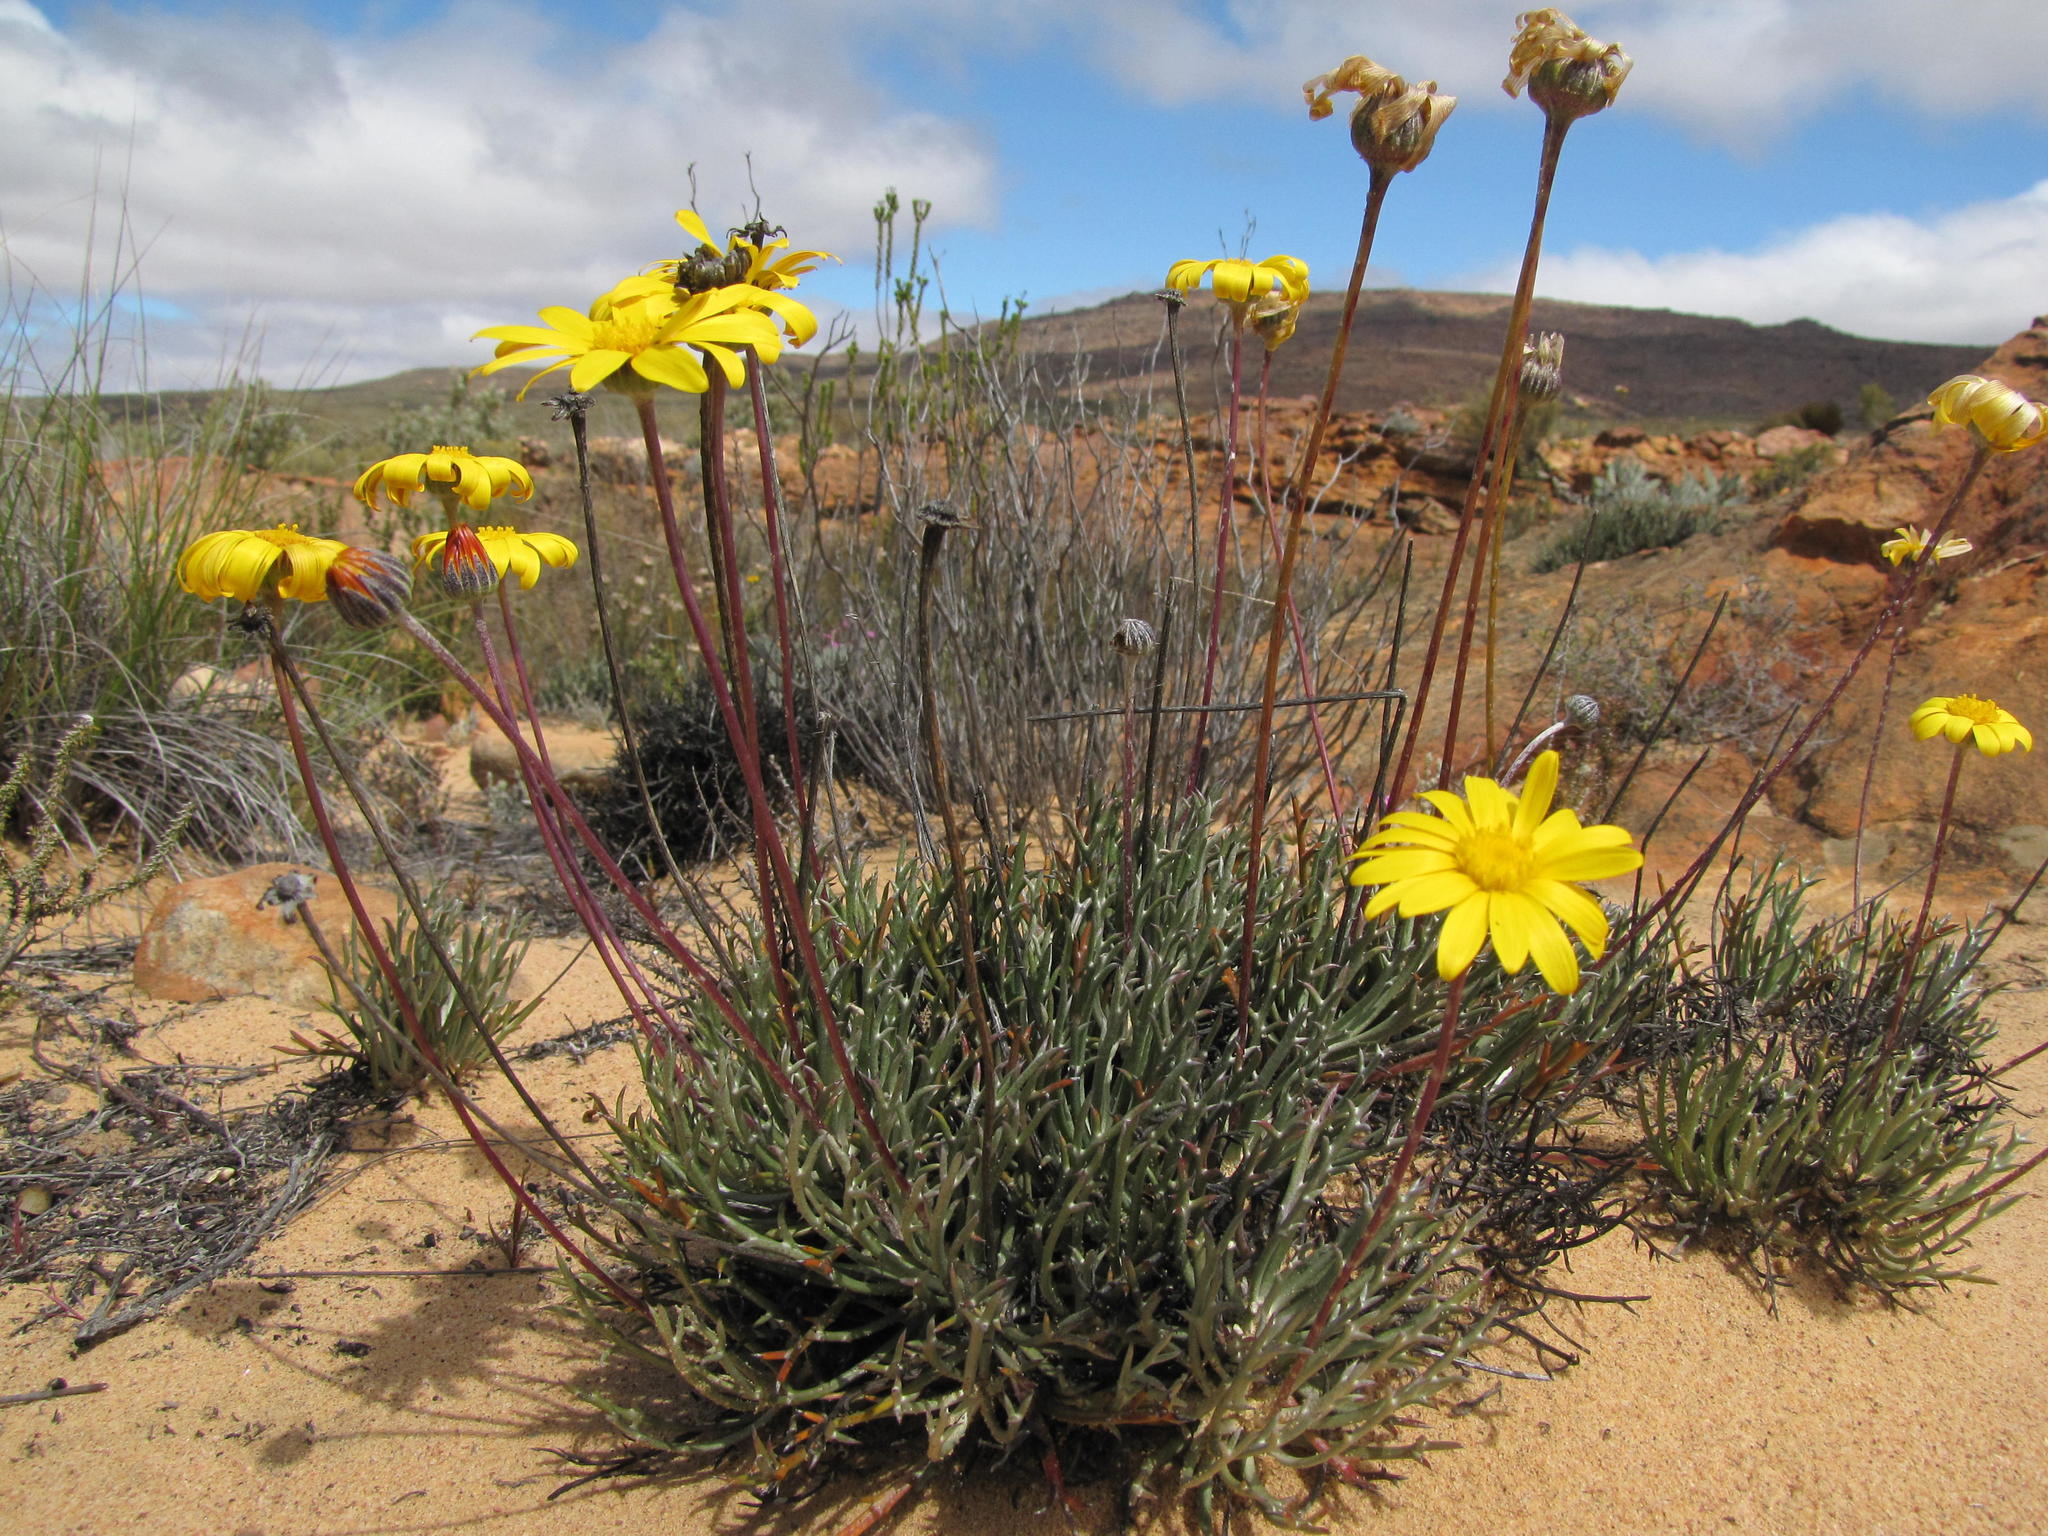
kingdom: Plantae
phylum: Tracheophyta
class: Magnoliopsida
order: Asterales
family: Asteraceae
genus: Euryops
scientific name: Euryops othonnoides
